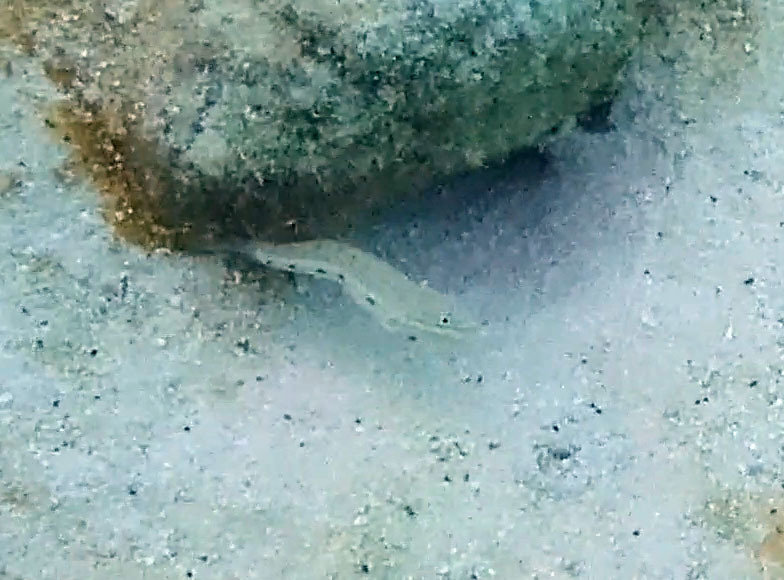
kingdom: Animalia
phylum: Chordata
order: Perciformes
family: Gobiidae
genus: Valenciennea
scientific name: Valenciennea longipinnis
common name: Longfinned goby
